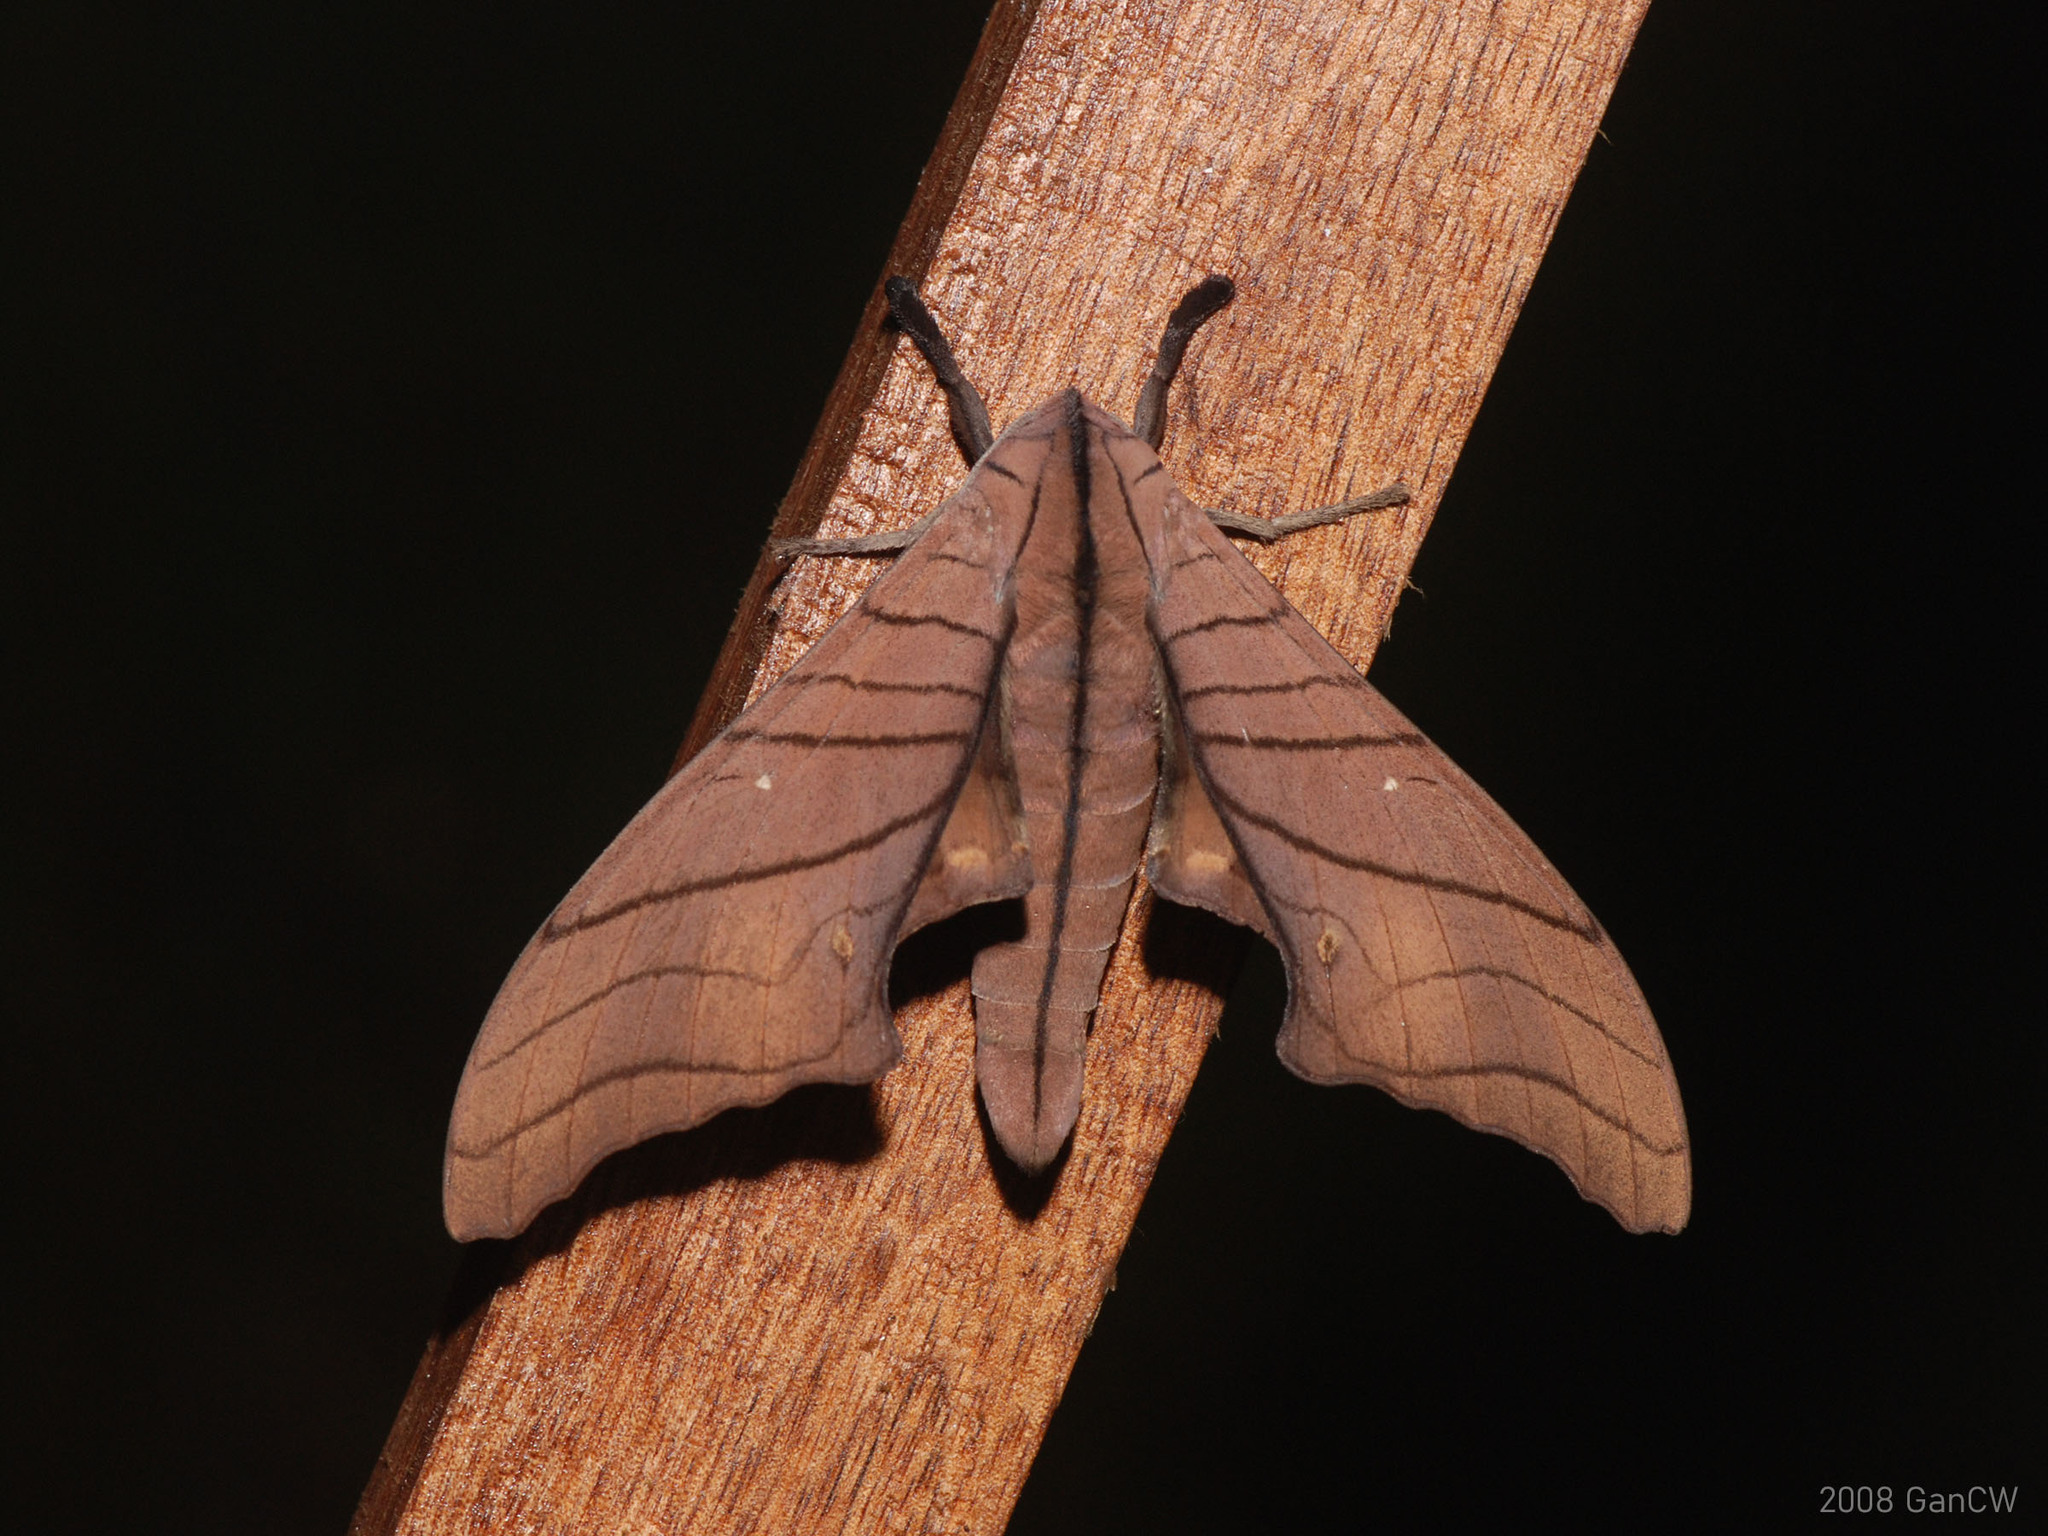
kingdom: Animalia
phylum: Arthropoda
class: Insecta
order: Lepidoptera
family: Sphingidae
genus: Marumba
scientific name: Marumba cristata
